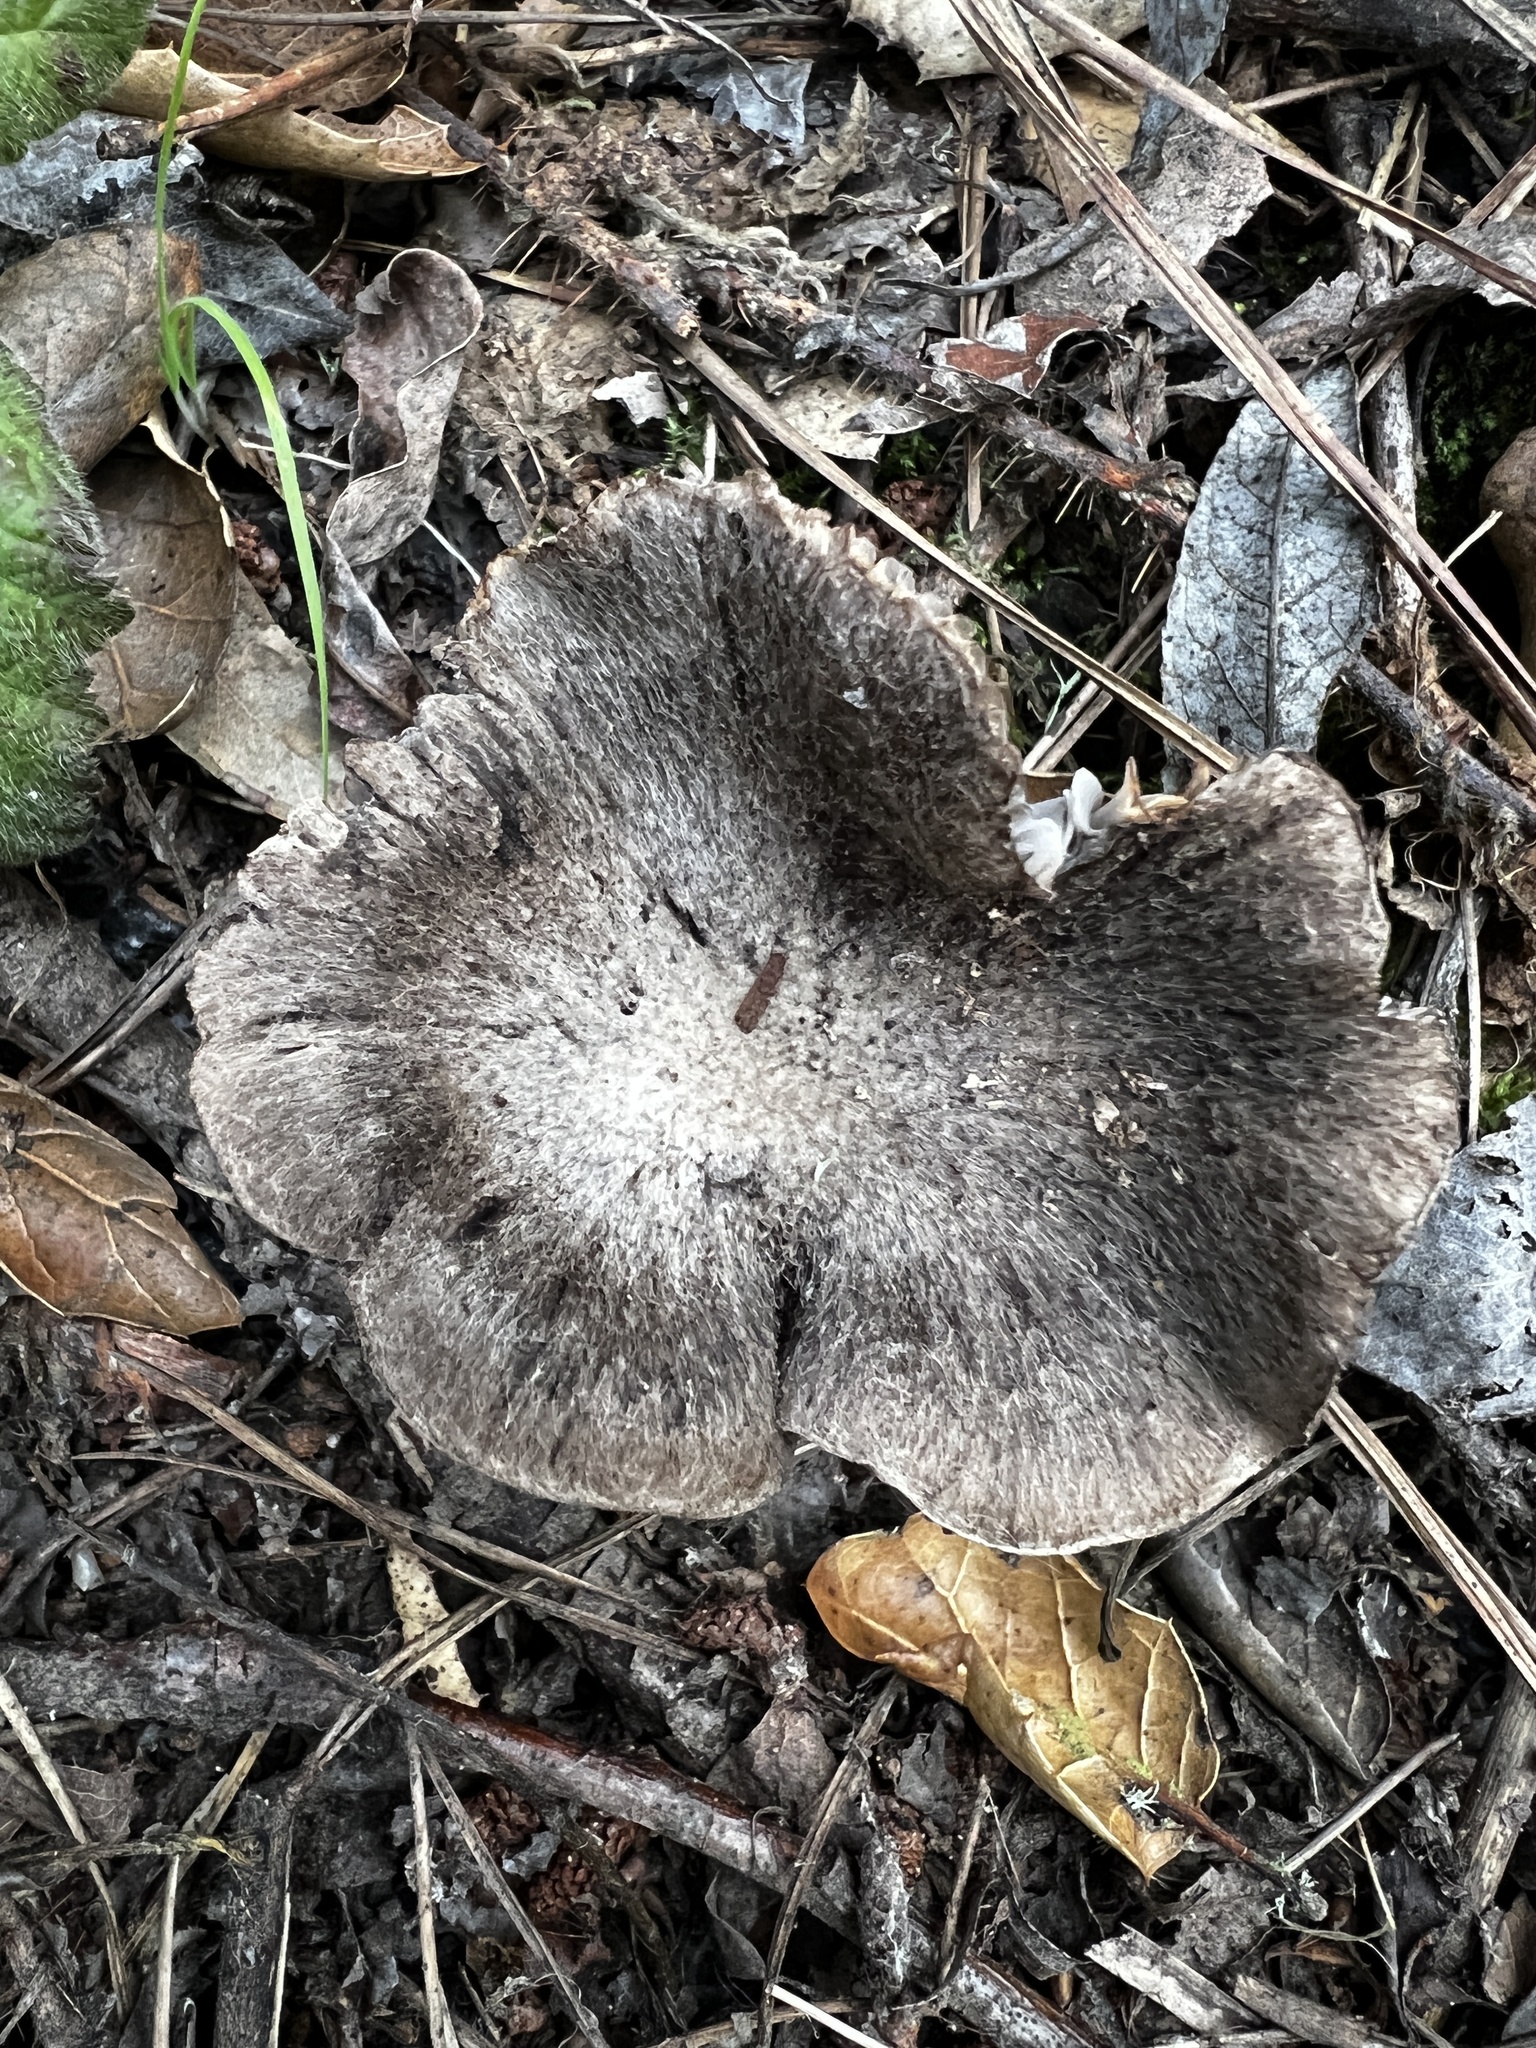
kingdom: Fungi
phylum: Basidiomycota
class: Agaricomycetes
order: Agaricales
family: Tricholomataceae
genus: Tricholoma
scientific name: Tricholoma terreum
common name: Grey knight
